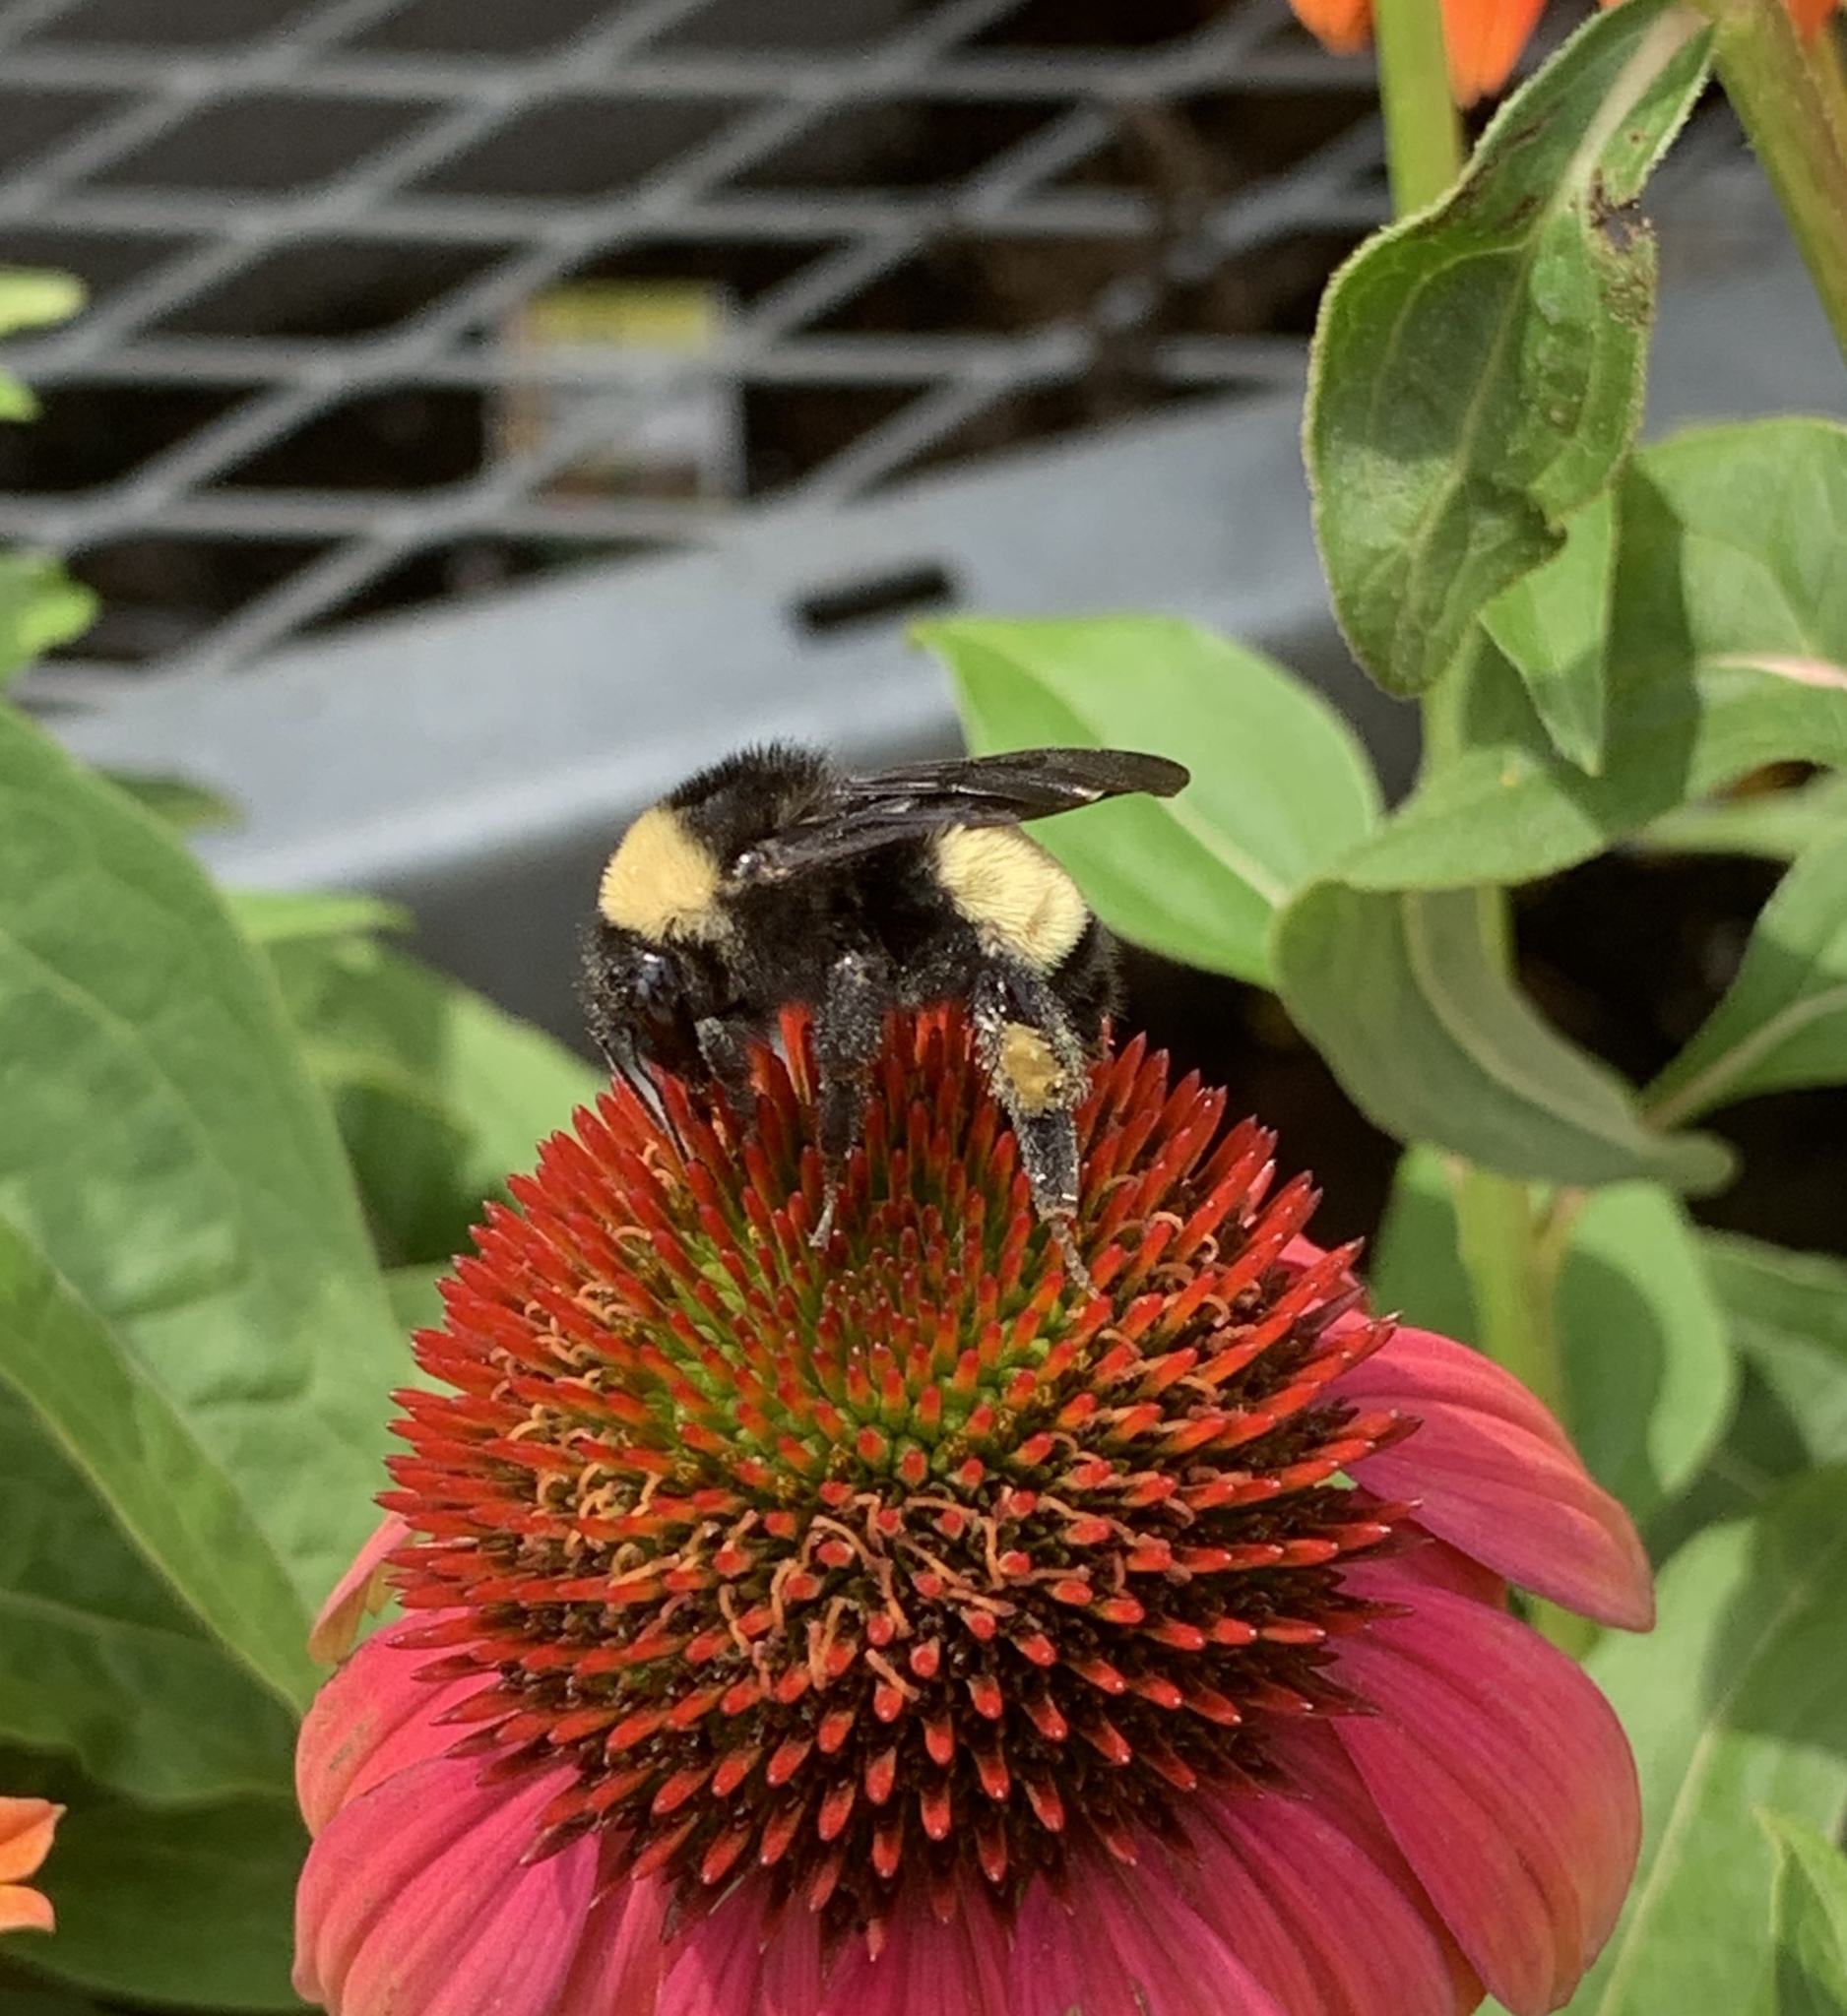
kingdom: Animalia
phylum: Arthropoda
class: Insecta
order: Hymenoptera
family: Apidae
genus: Bombus
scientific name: Bombus pensylvanicus
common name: Bumble bee
